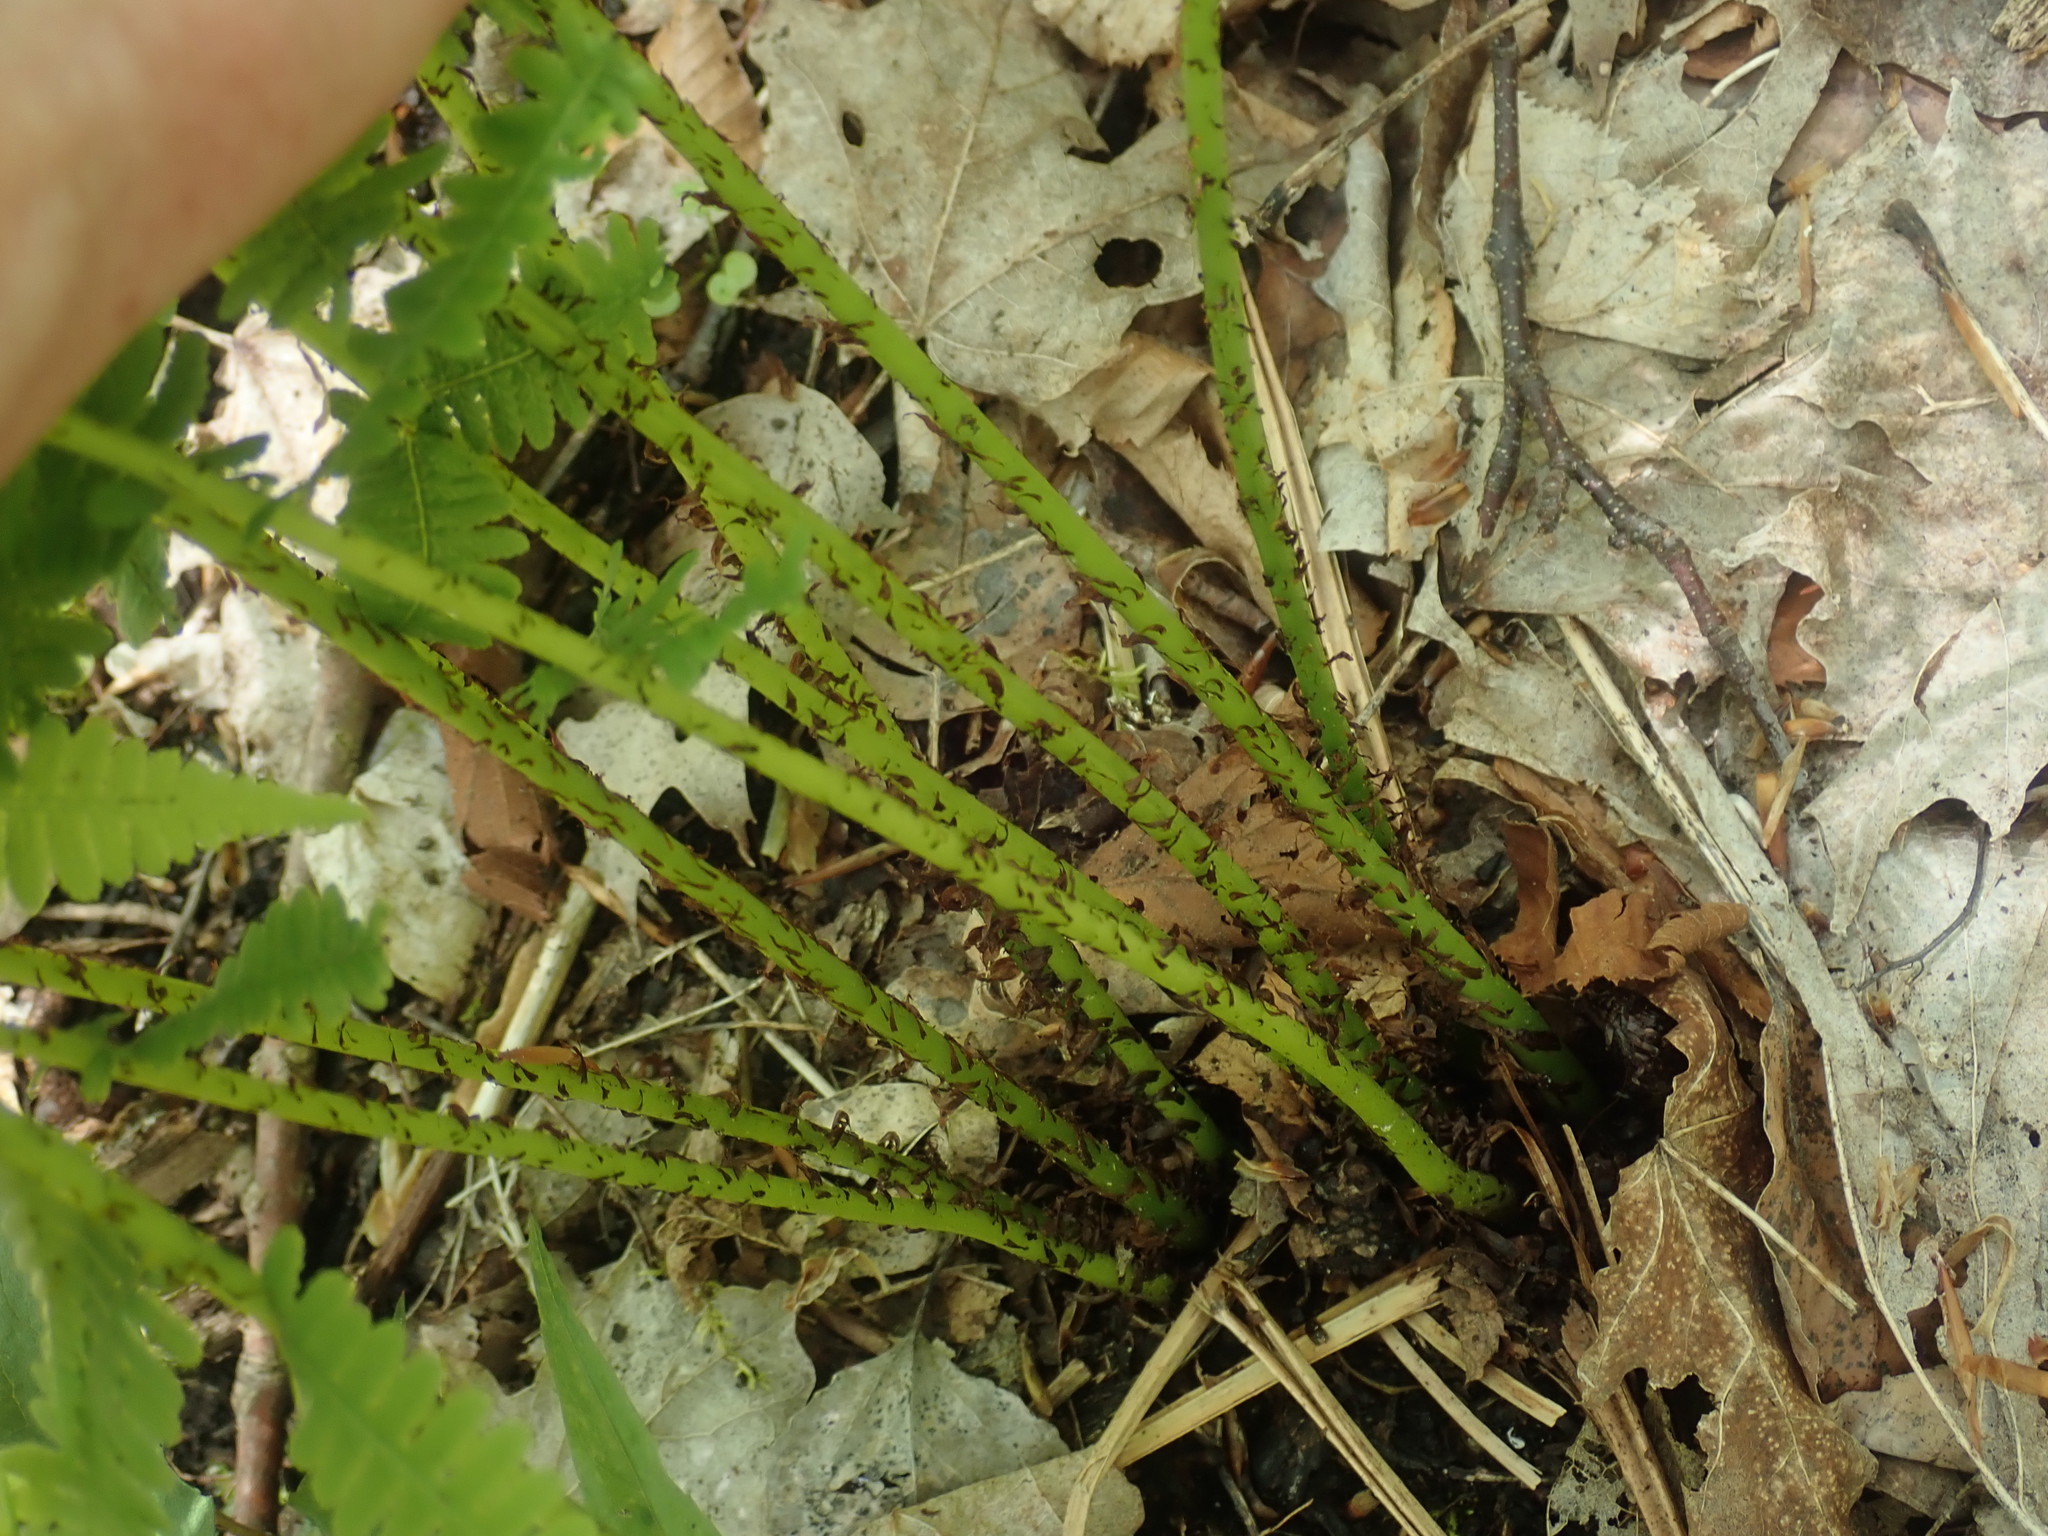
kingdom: Plantae
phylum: Tracheophyta
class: Polypodiopsida
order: Polypodiales
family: Athyriaceae
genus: Athyrium
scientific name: Athyrium angustum
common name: Northern lady fern
